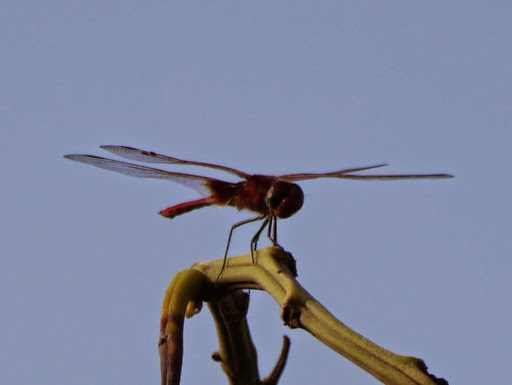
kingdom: Animalia
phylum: Arthropoda
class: Insecta
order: Odonata
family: Libellulidae
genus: Urothemis
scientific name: Urothemis assignata
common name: Red basker
